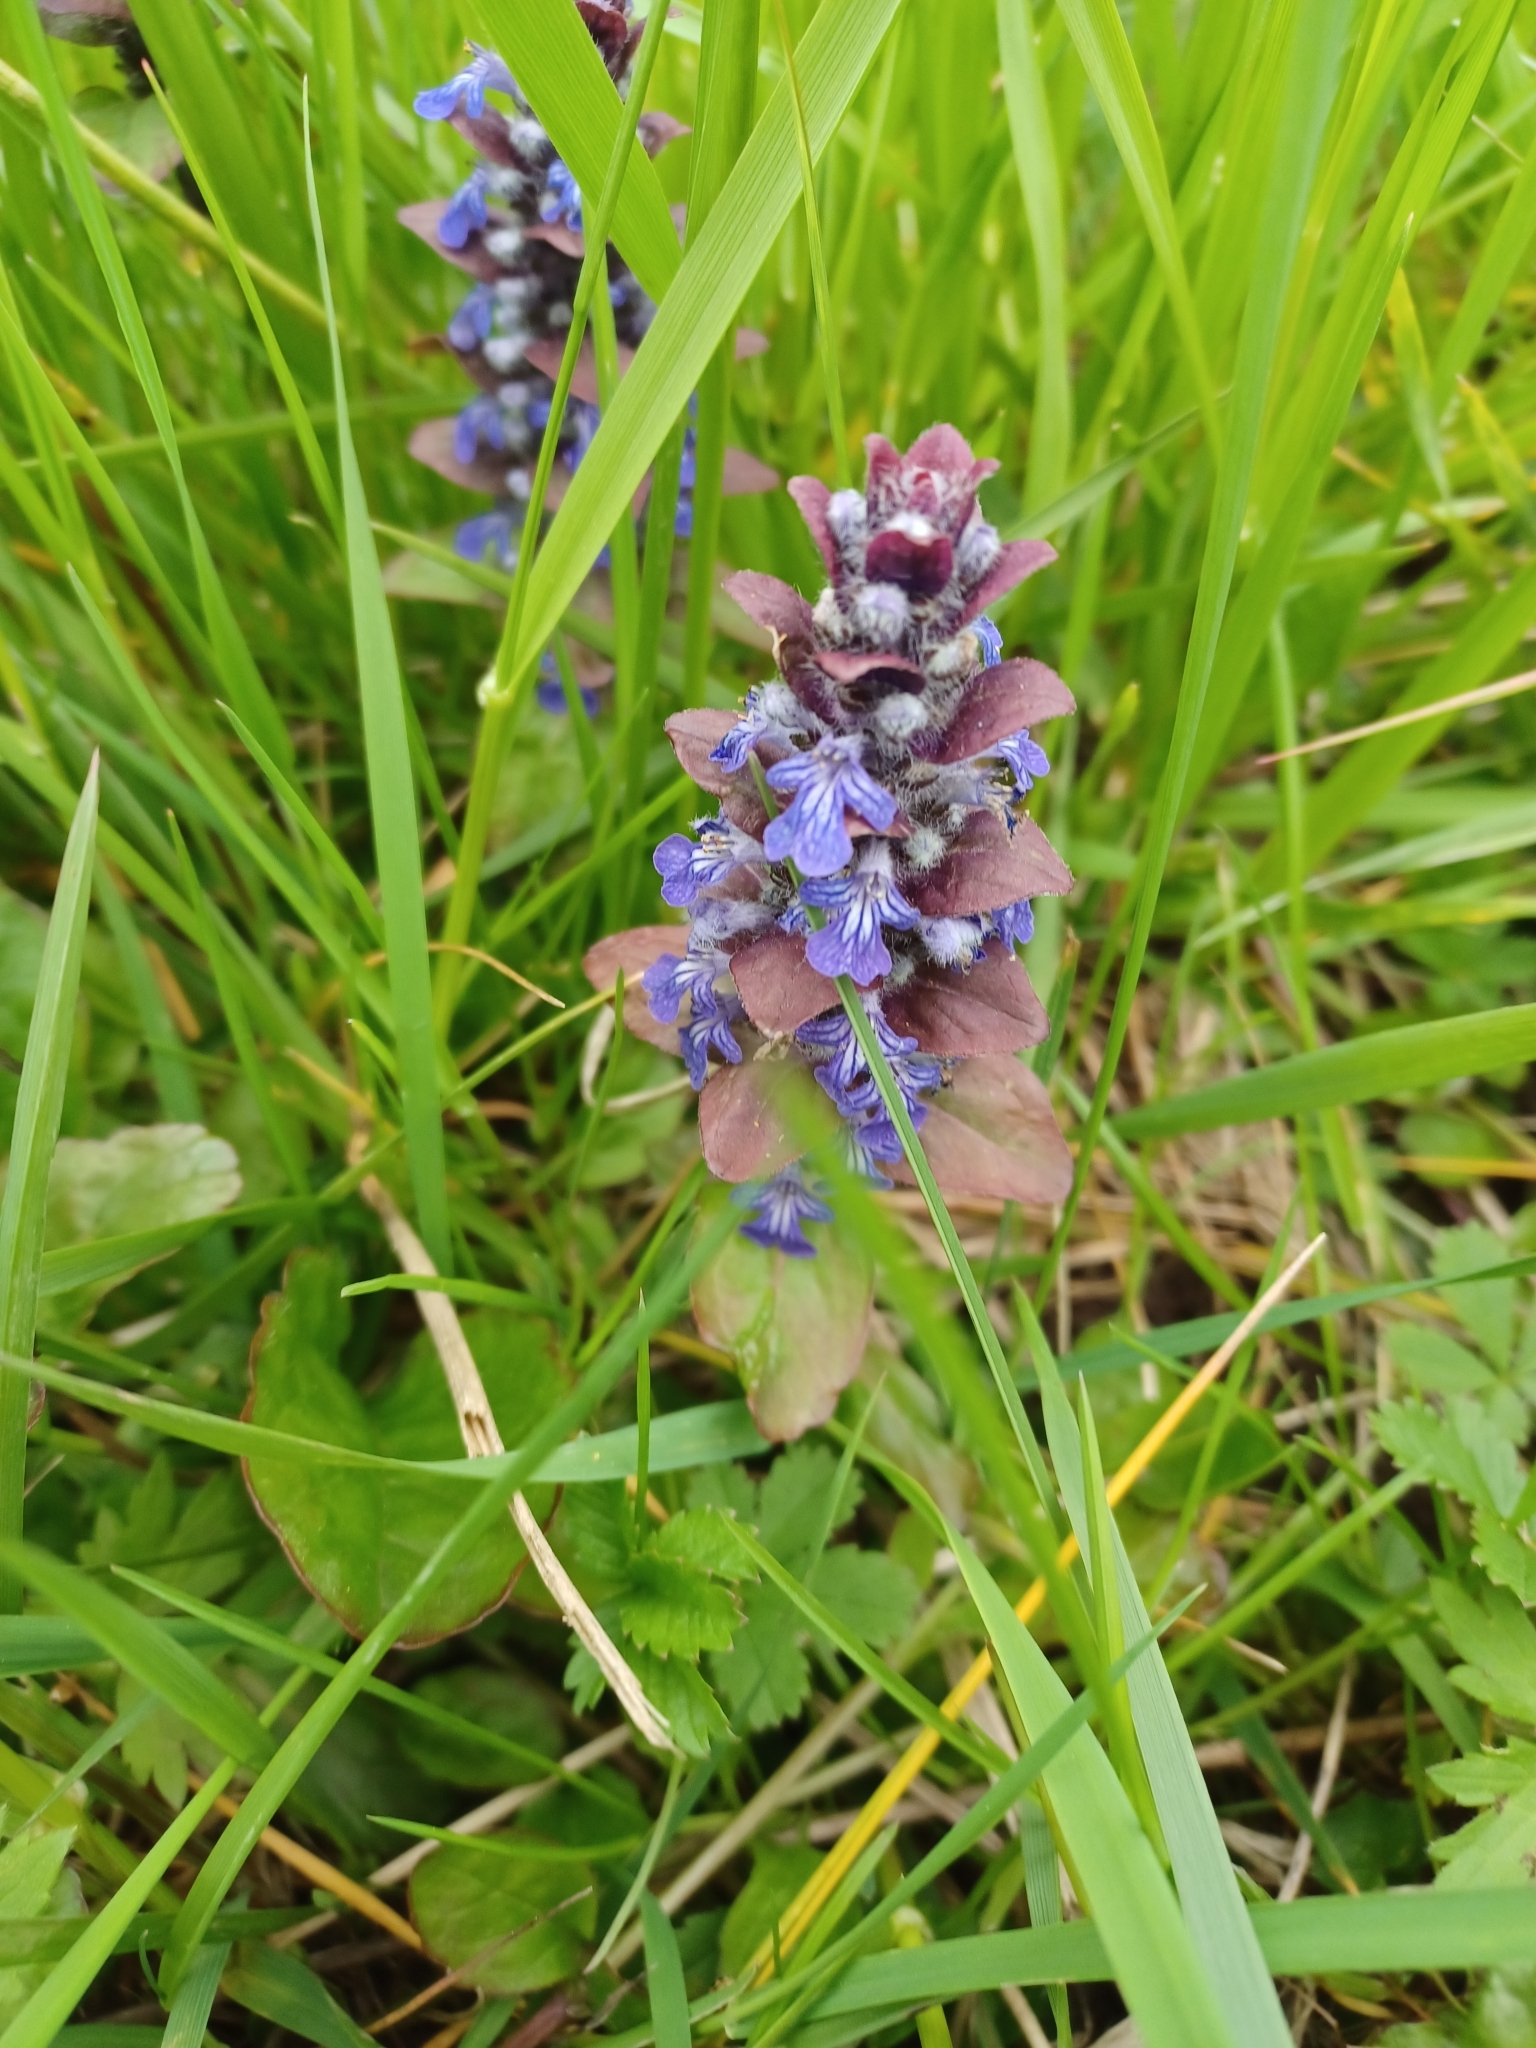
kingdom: Plantae
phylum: Tracheophyta
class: Magnoliopsida
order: Lamiales
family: Lamiaceae
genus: Ajuga
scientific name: Ajuga reptans
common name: Bugle
